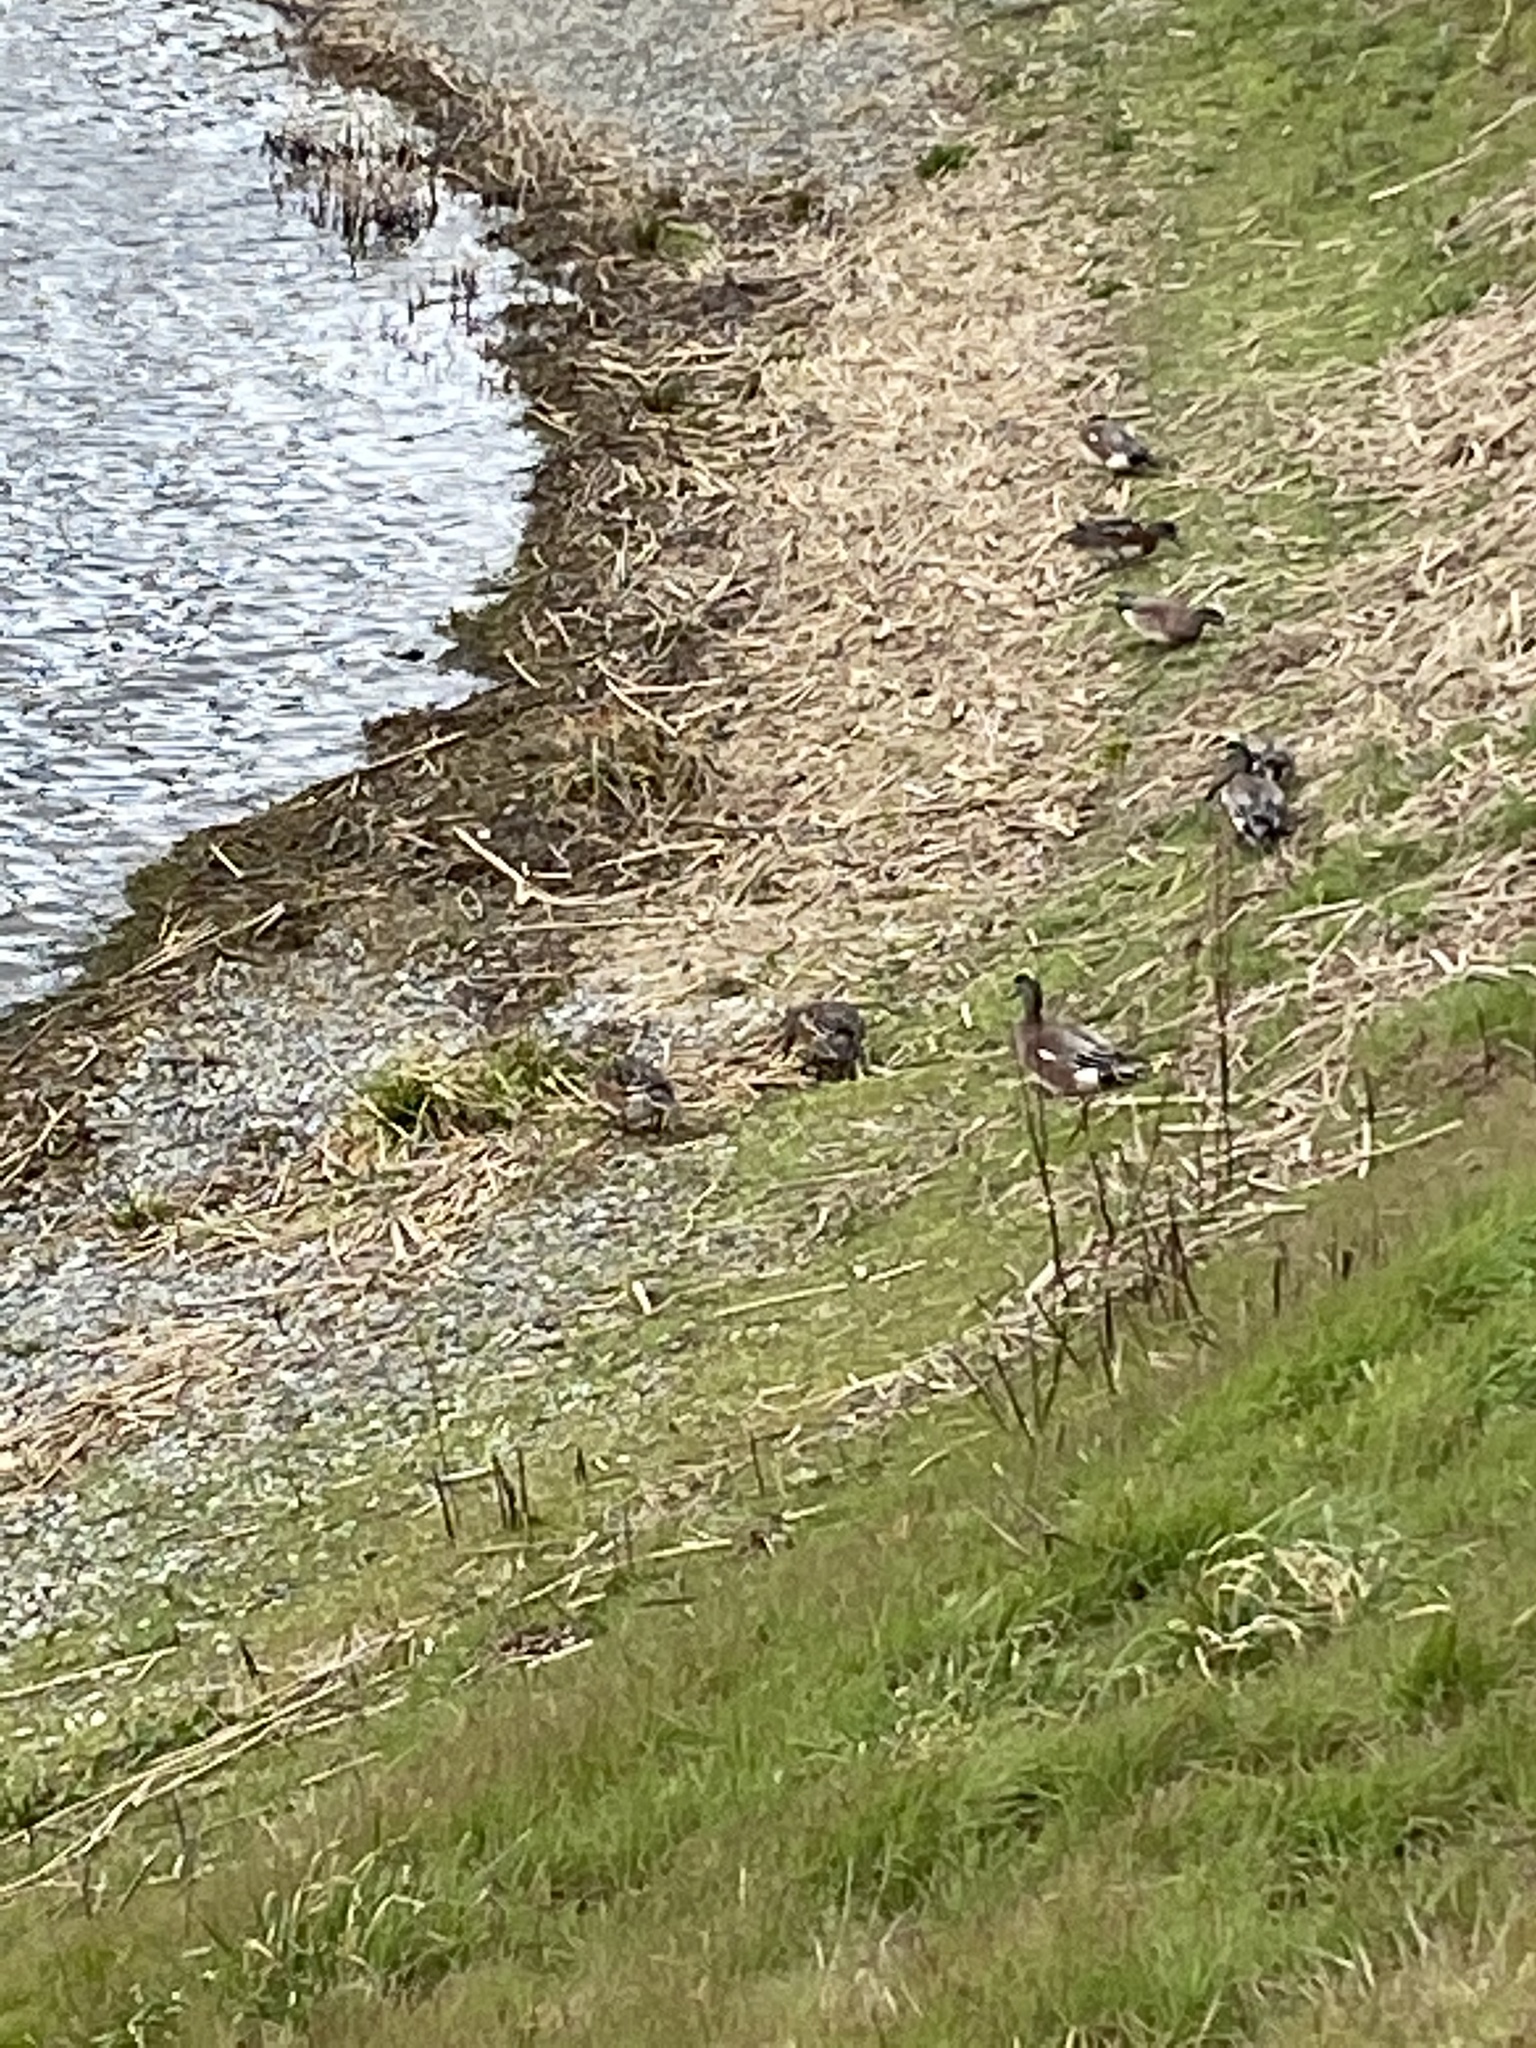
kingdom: Animalia
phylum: Chordata
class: Aves
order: Anseriformes
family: Anatidae
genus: Mareca
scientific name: Mareca americana
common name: American wigeon
